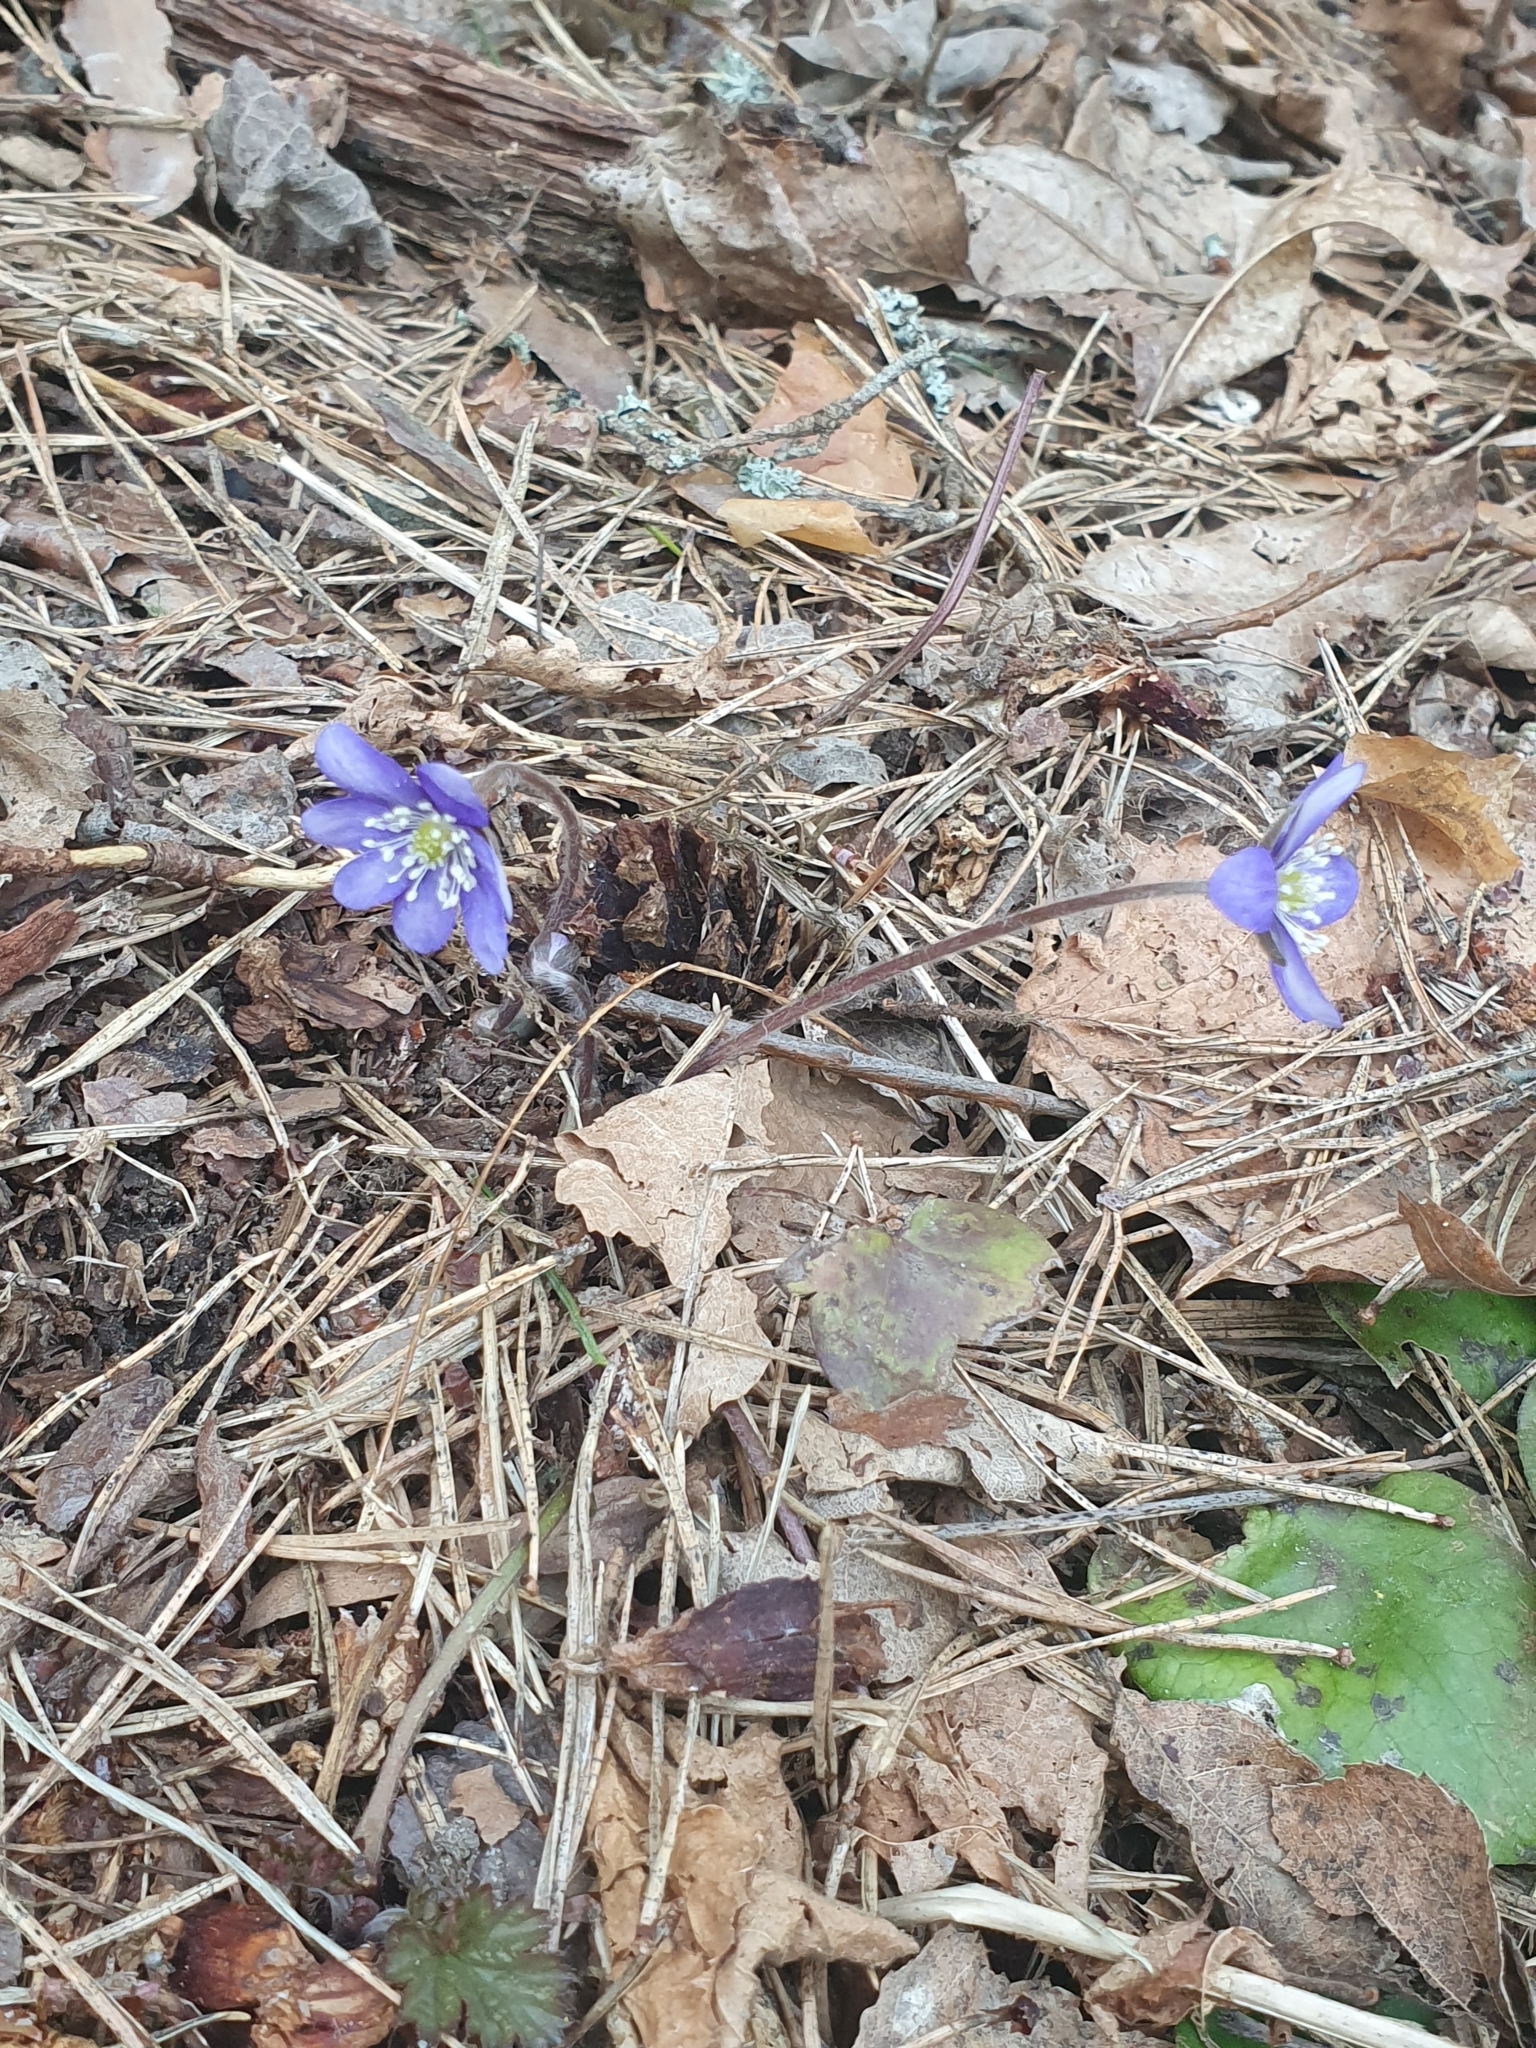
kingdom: Plantae
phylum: Tracheophyta
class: Magnoliopsida
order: Ranunculales
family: Ranunculaceae
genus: Hepatica
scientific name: Hepatica nobilis
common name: Liverleaf
